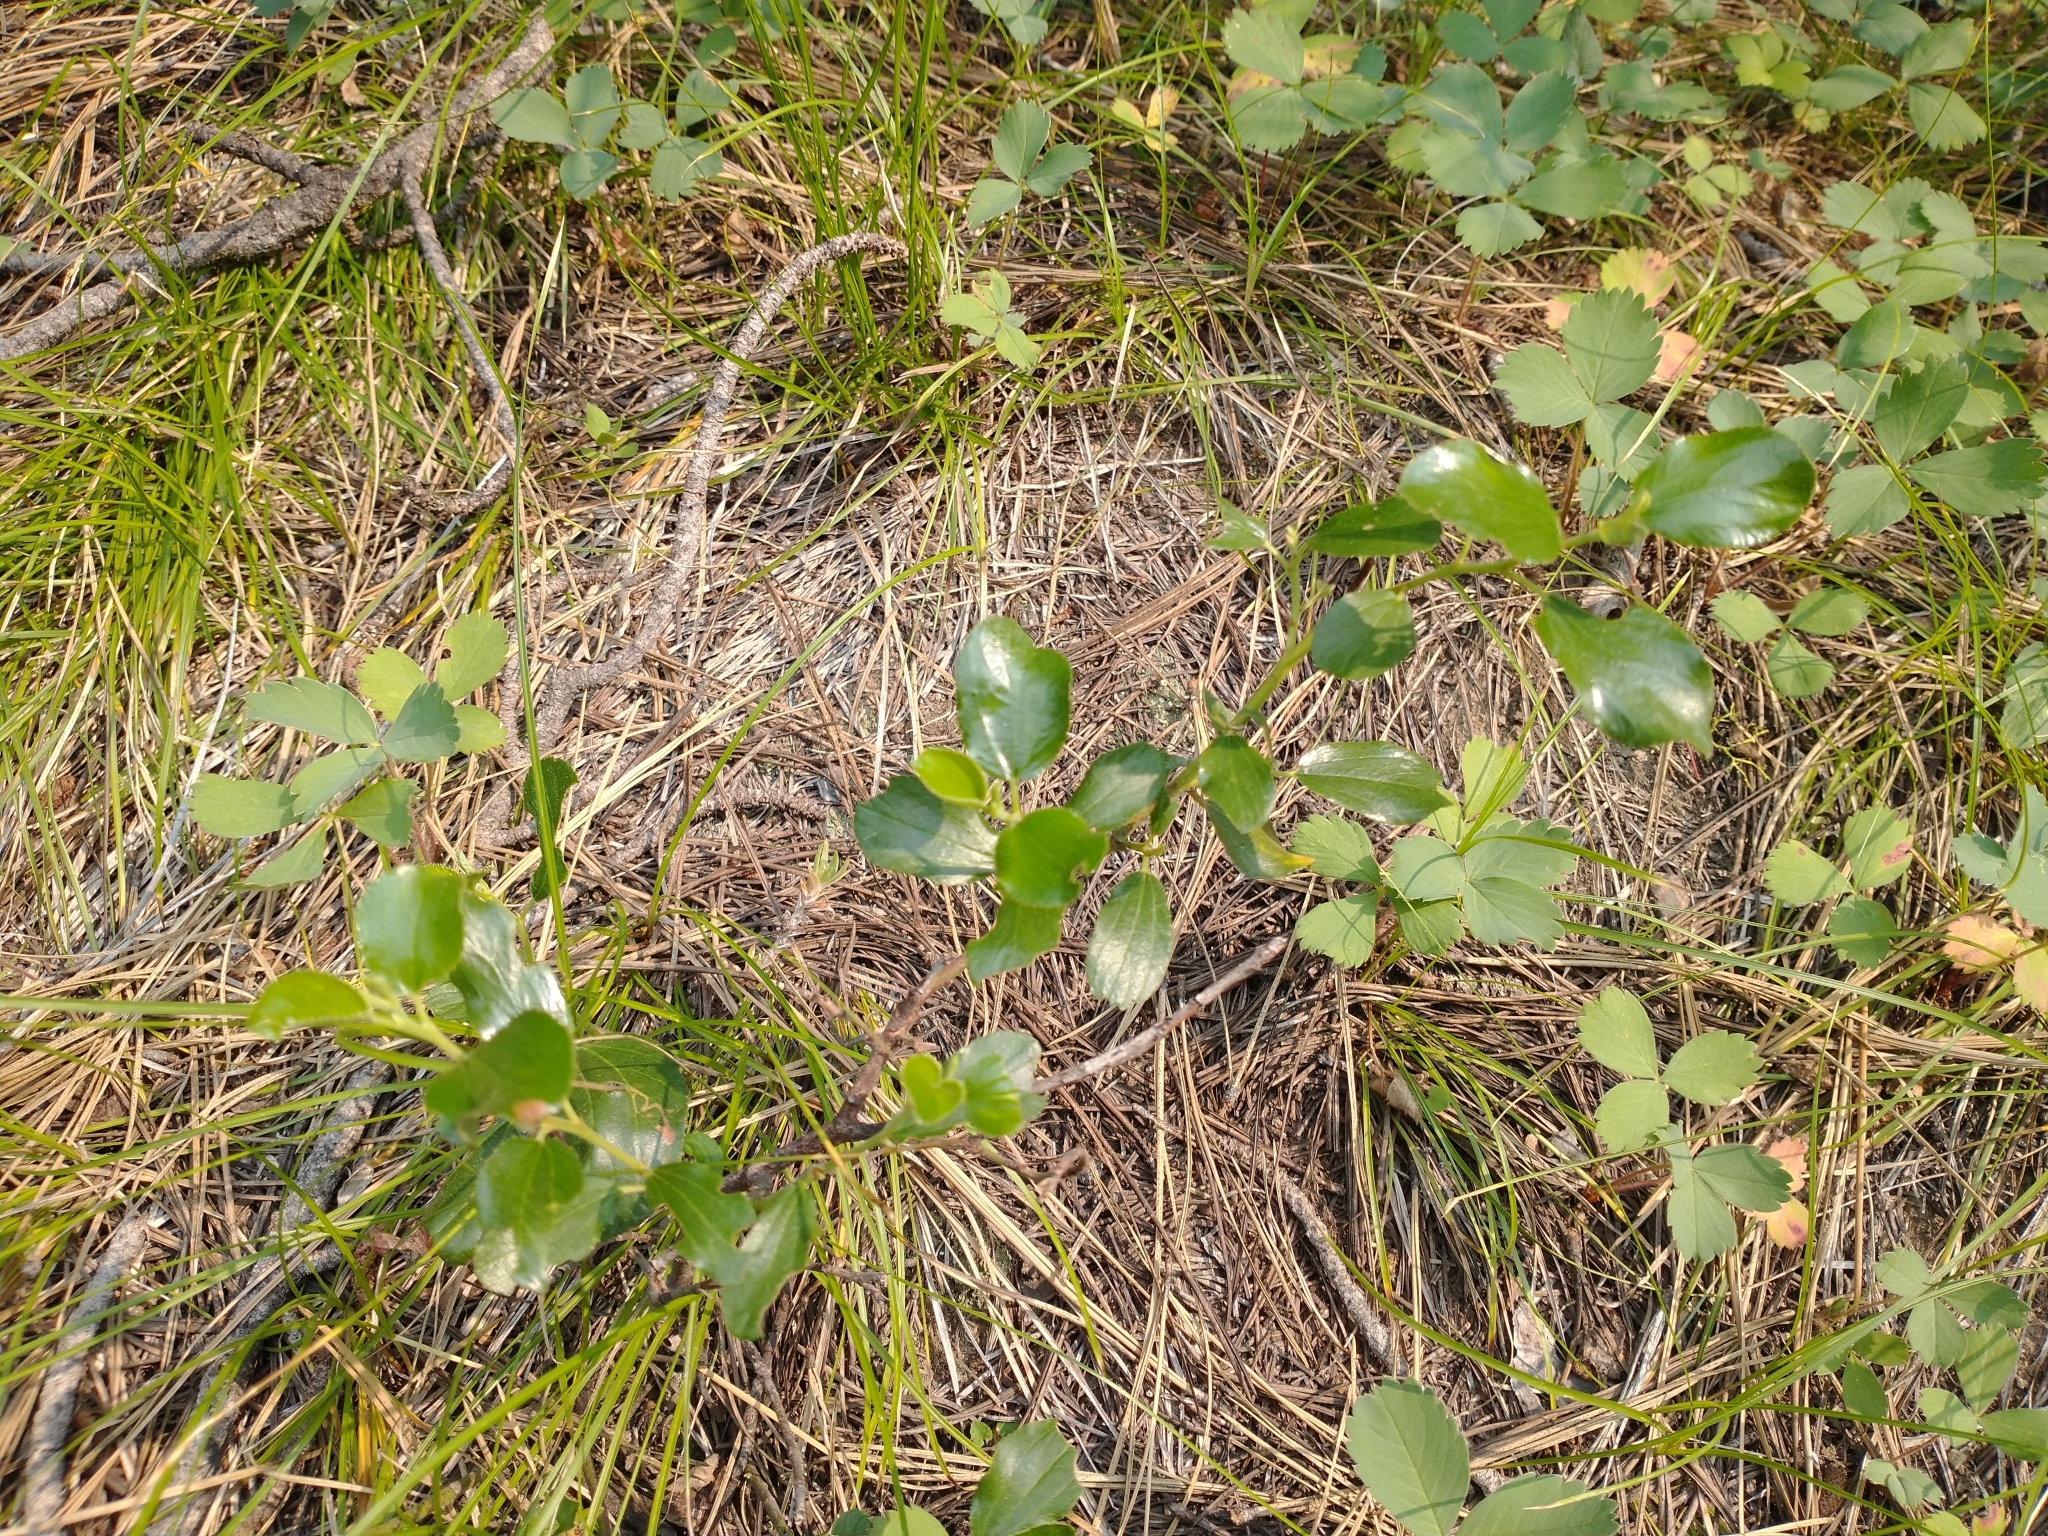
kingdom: Plantae
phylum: Tracheophyta
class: Magnoliopsida
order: Rosales
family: Rhamnaceae
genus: Ceanothus
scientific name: Ceanothus velutinus
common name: Snowbrush
